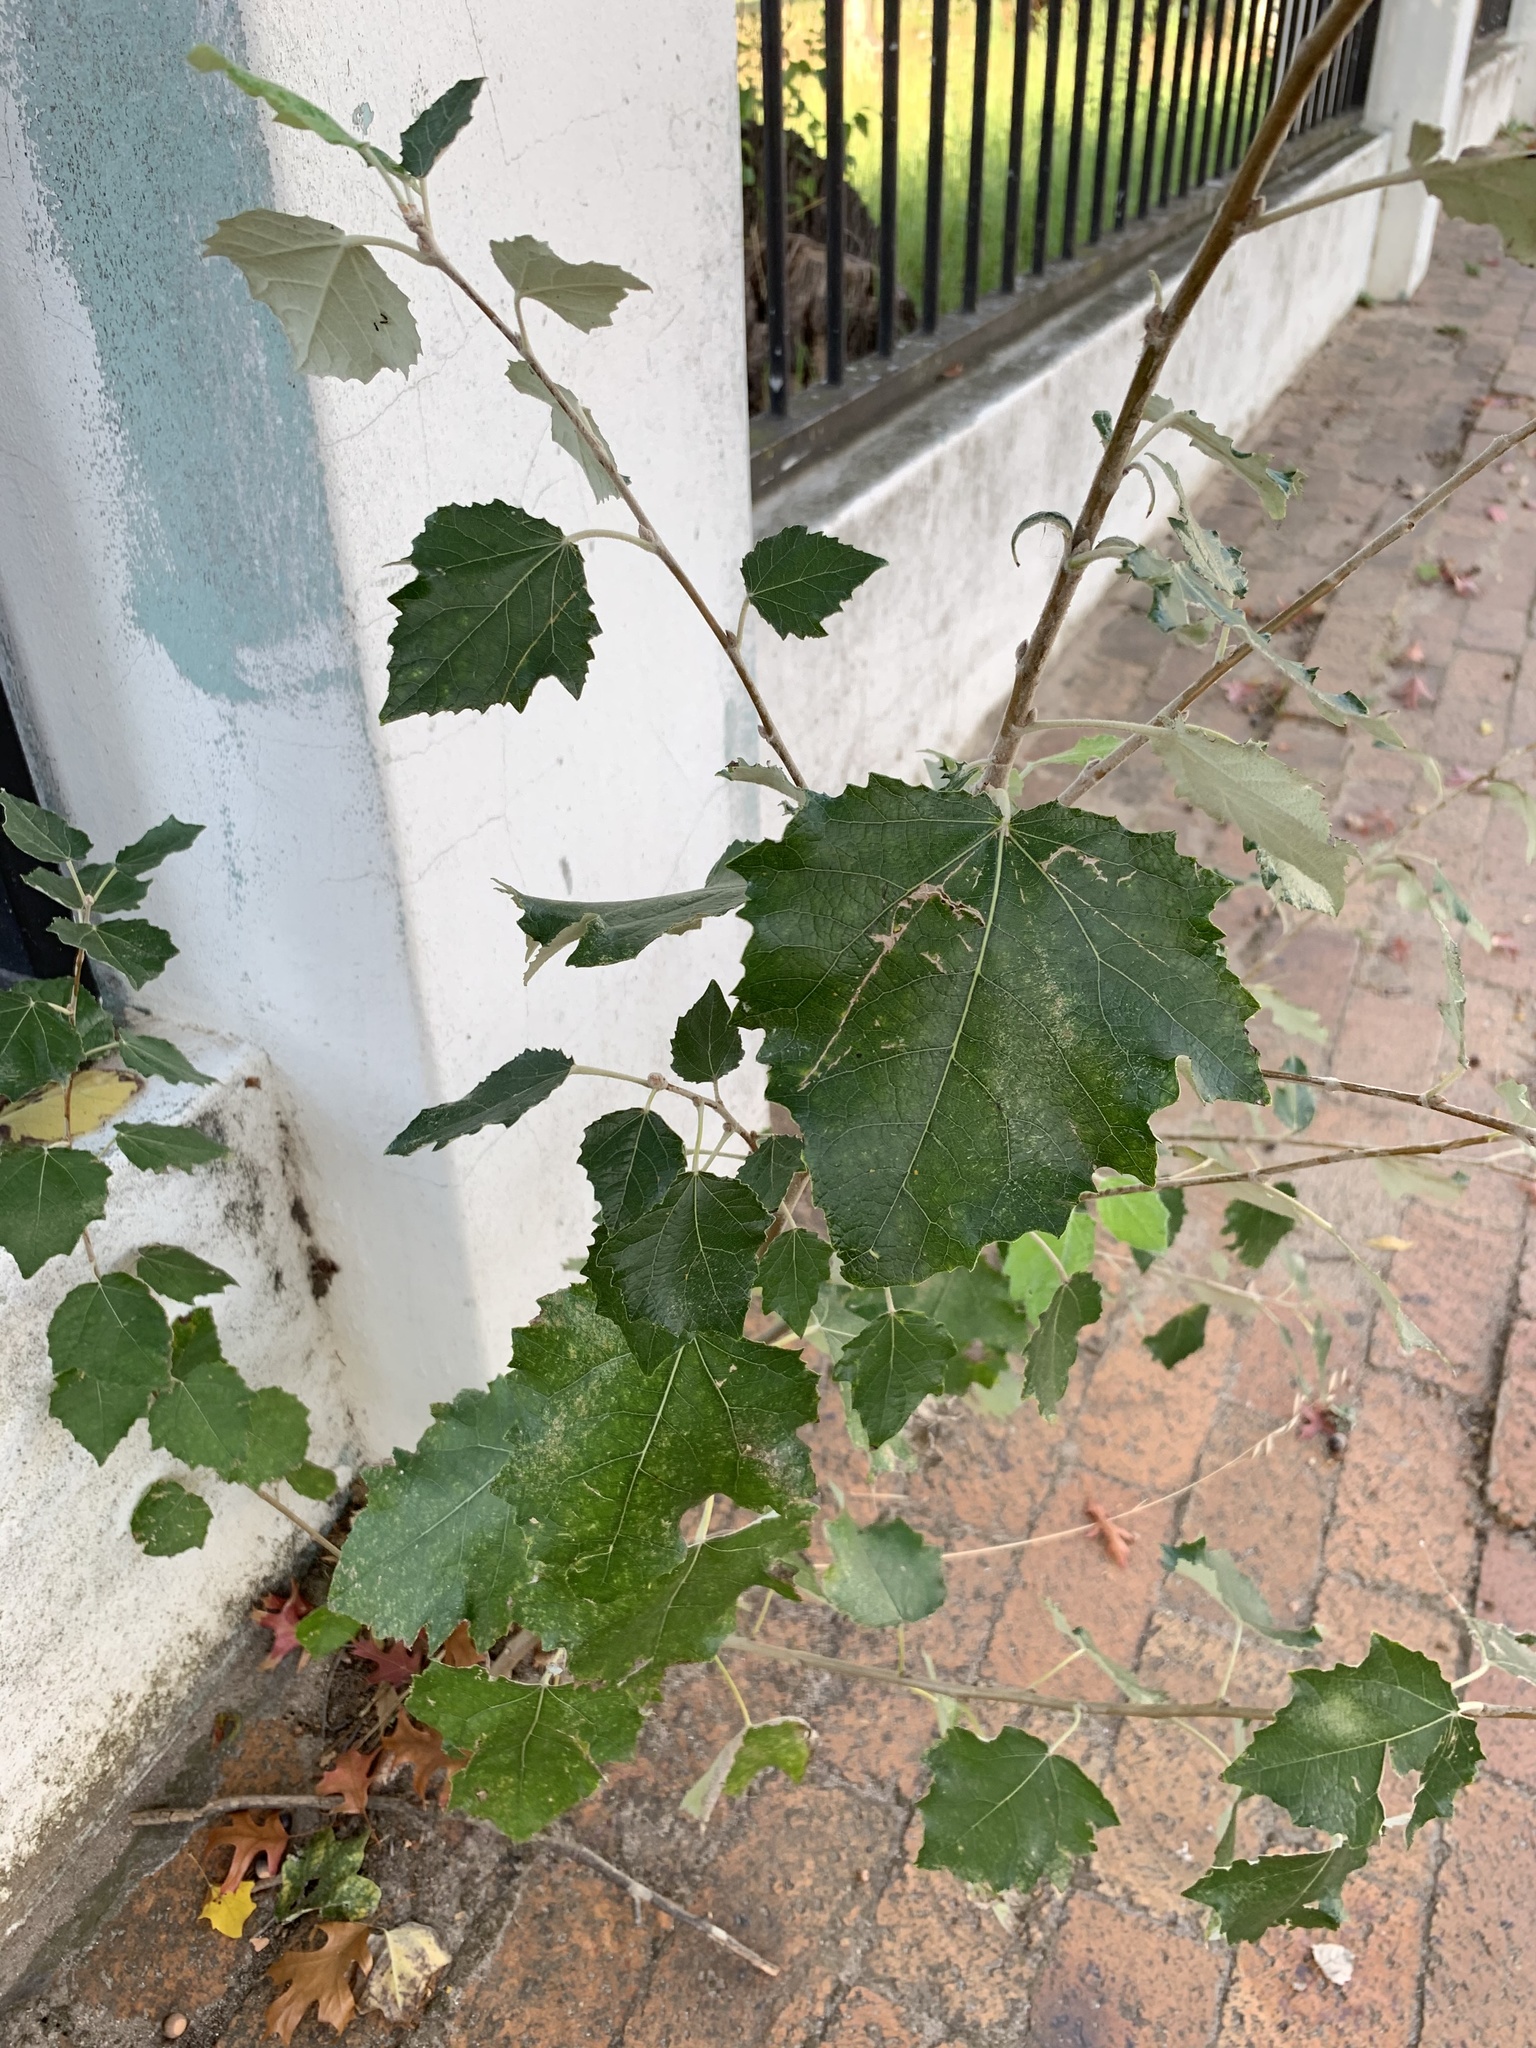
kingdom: Plantae
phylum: Tracheophyta
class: Magnoliopsida
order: Malpighiales
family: Salicaceae
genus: Populus
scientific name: Populus canescens
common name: Gray poplar
